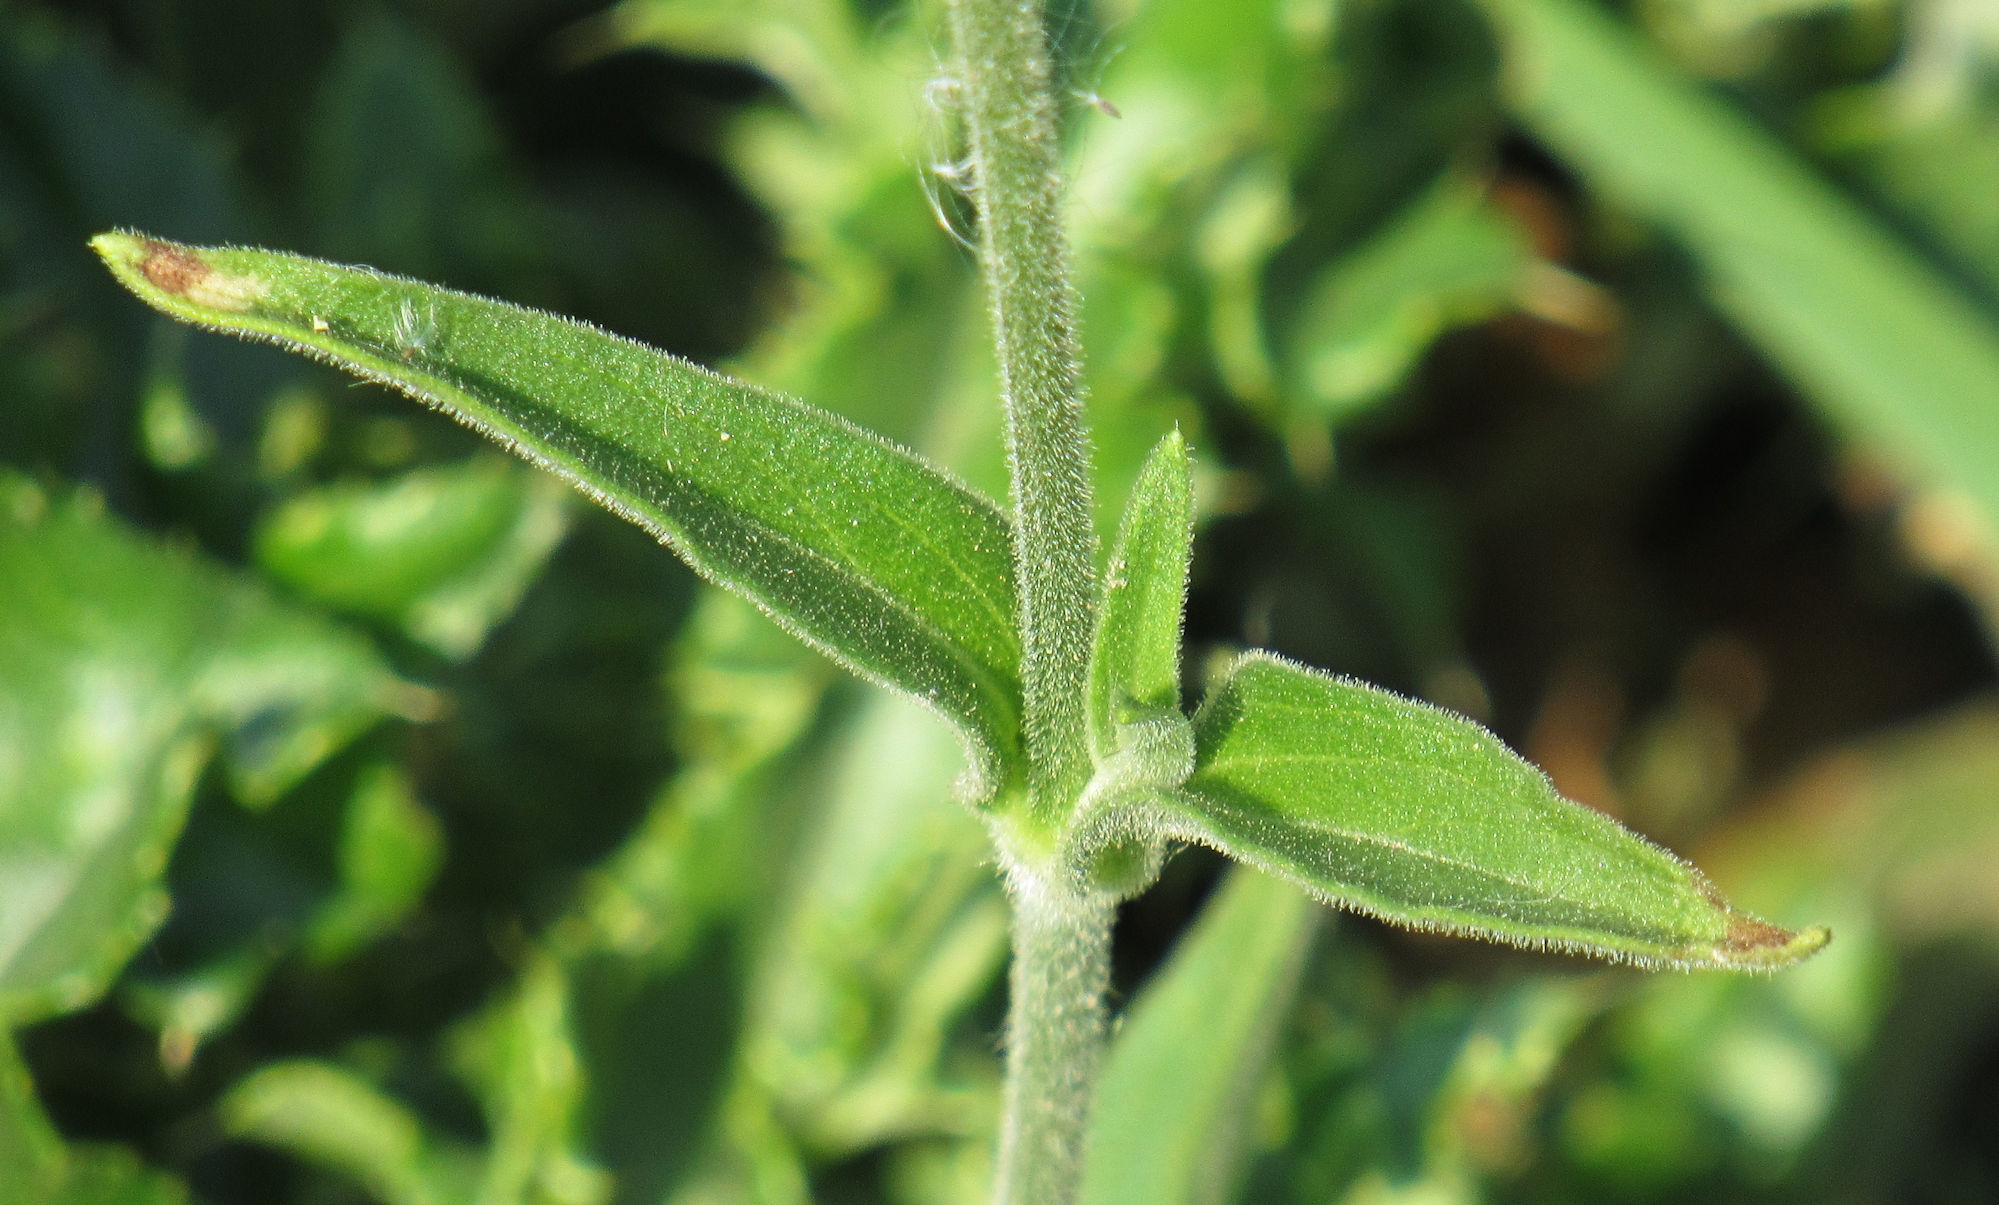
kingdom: Plantae
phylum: Tracheophyta
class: Magnoliopsida
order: Caryophyllales
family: Caryophyllaceae
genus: Silene
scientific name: Silene latifolia
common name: White campion
